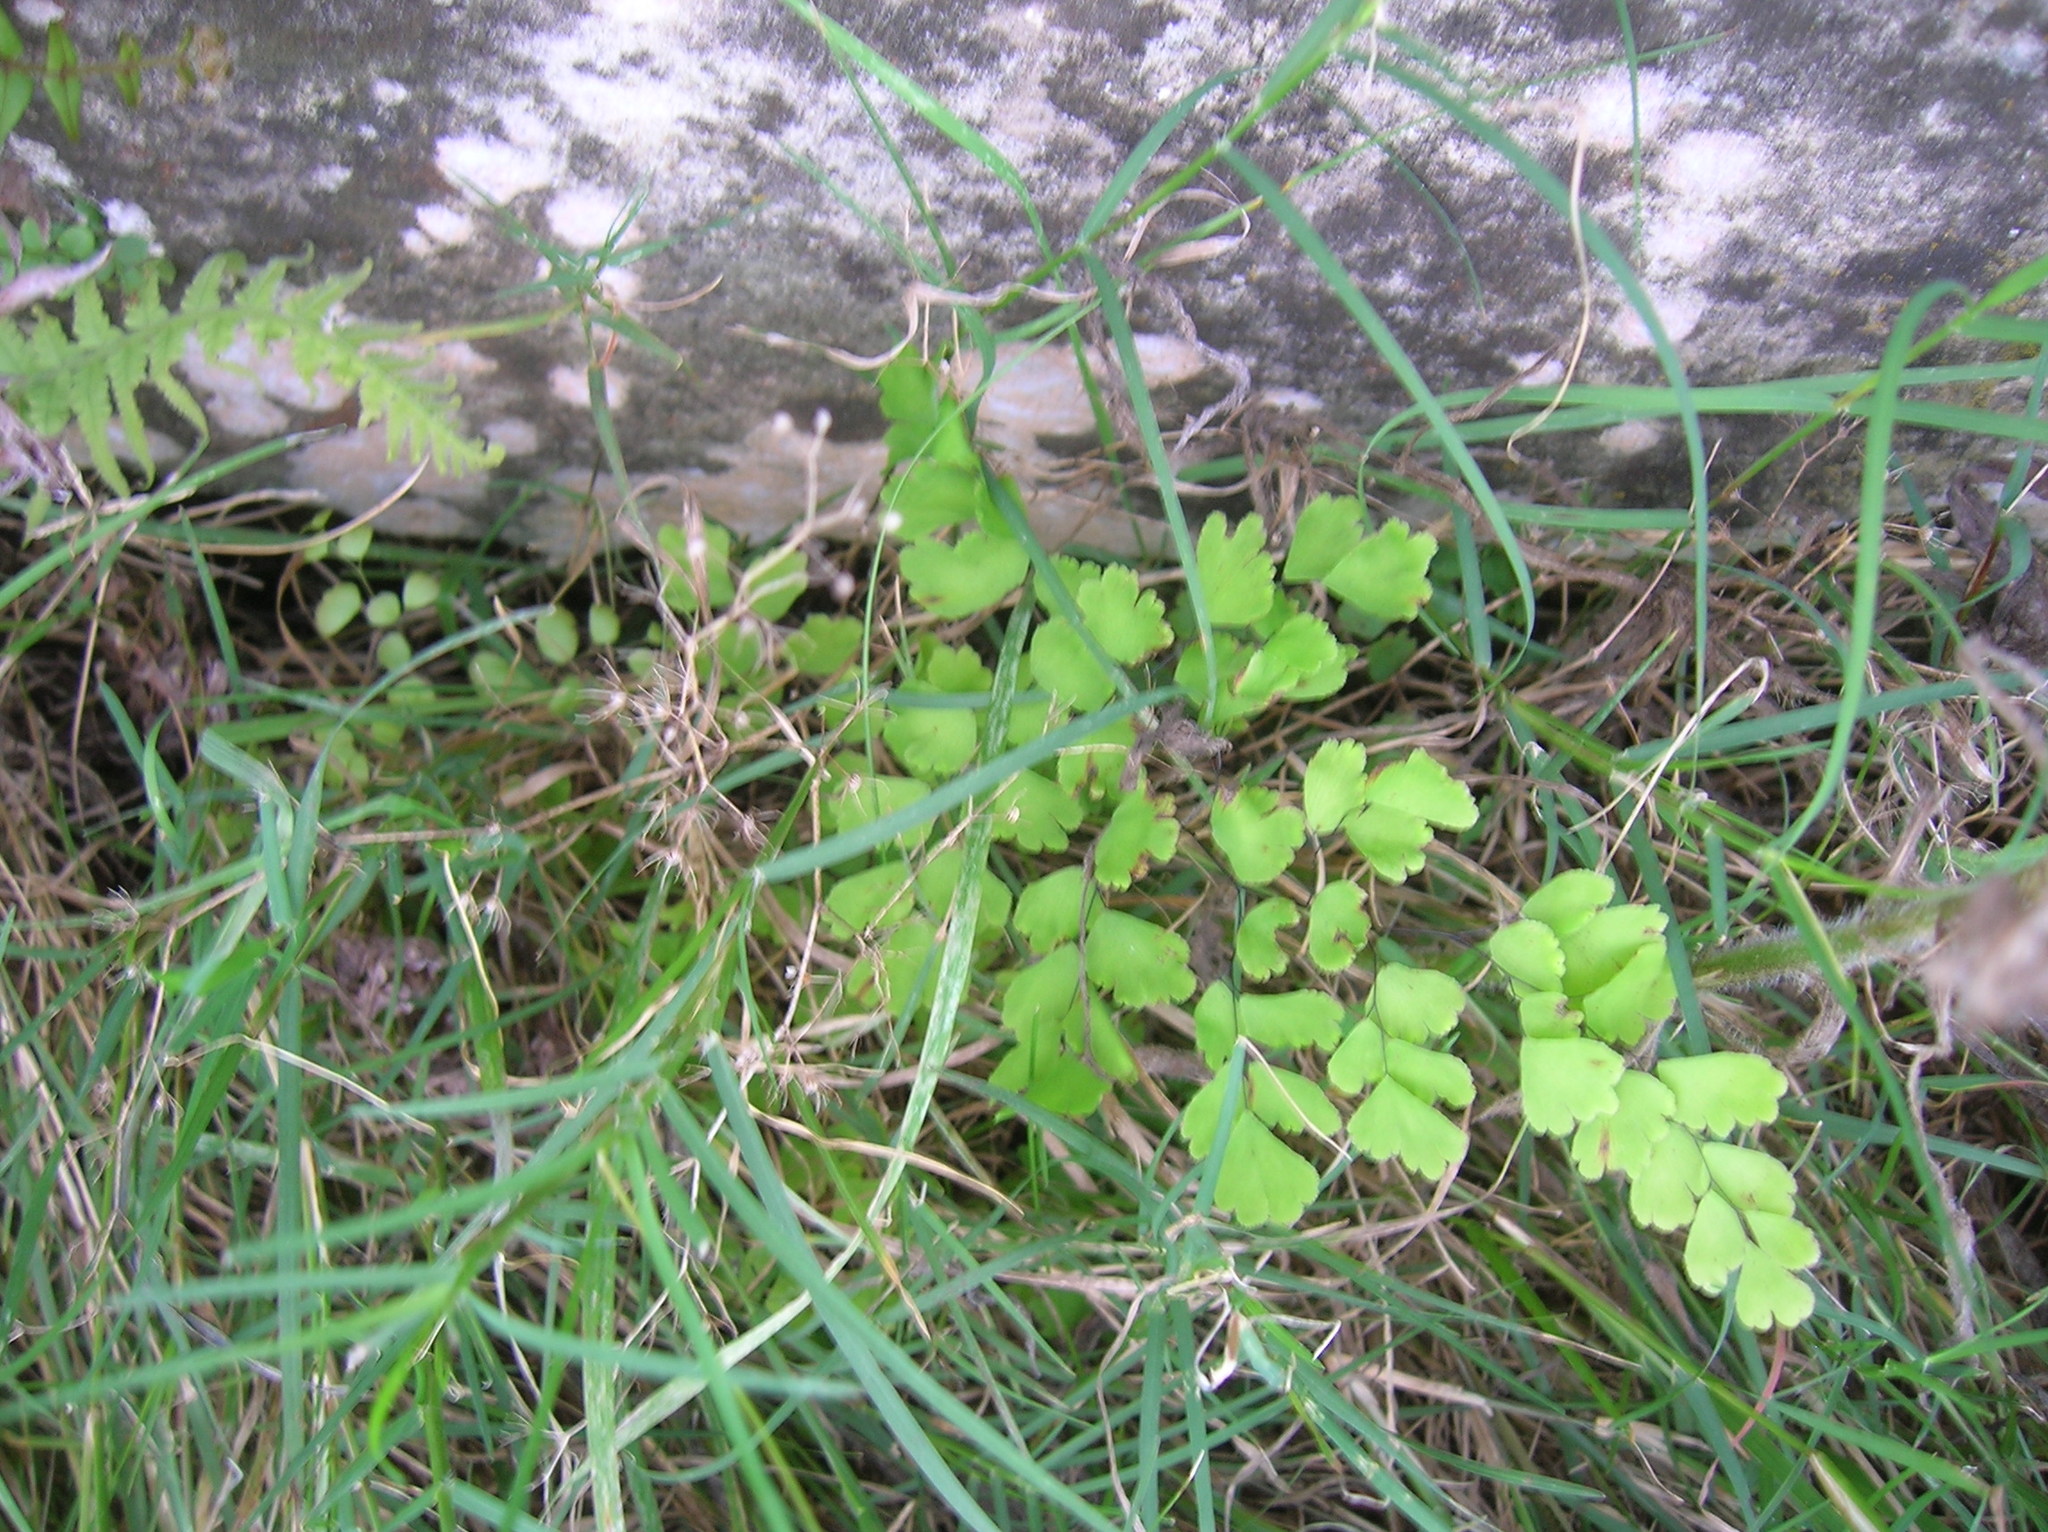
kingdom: Plantae
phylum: Tracheophyta
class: Polypodiopsida
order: Polypodiales
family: Pteridaceae
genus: Adiantum
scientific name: Adiantum raddianum
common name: Delta maidenhair fern
